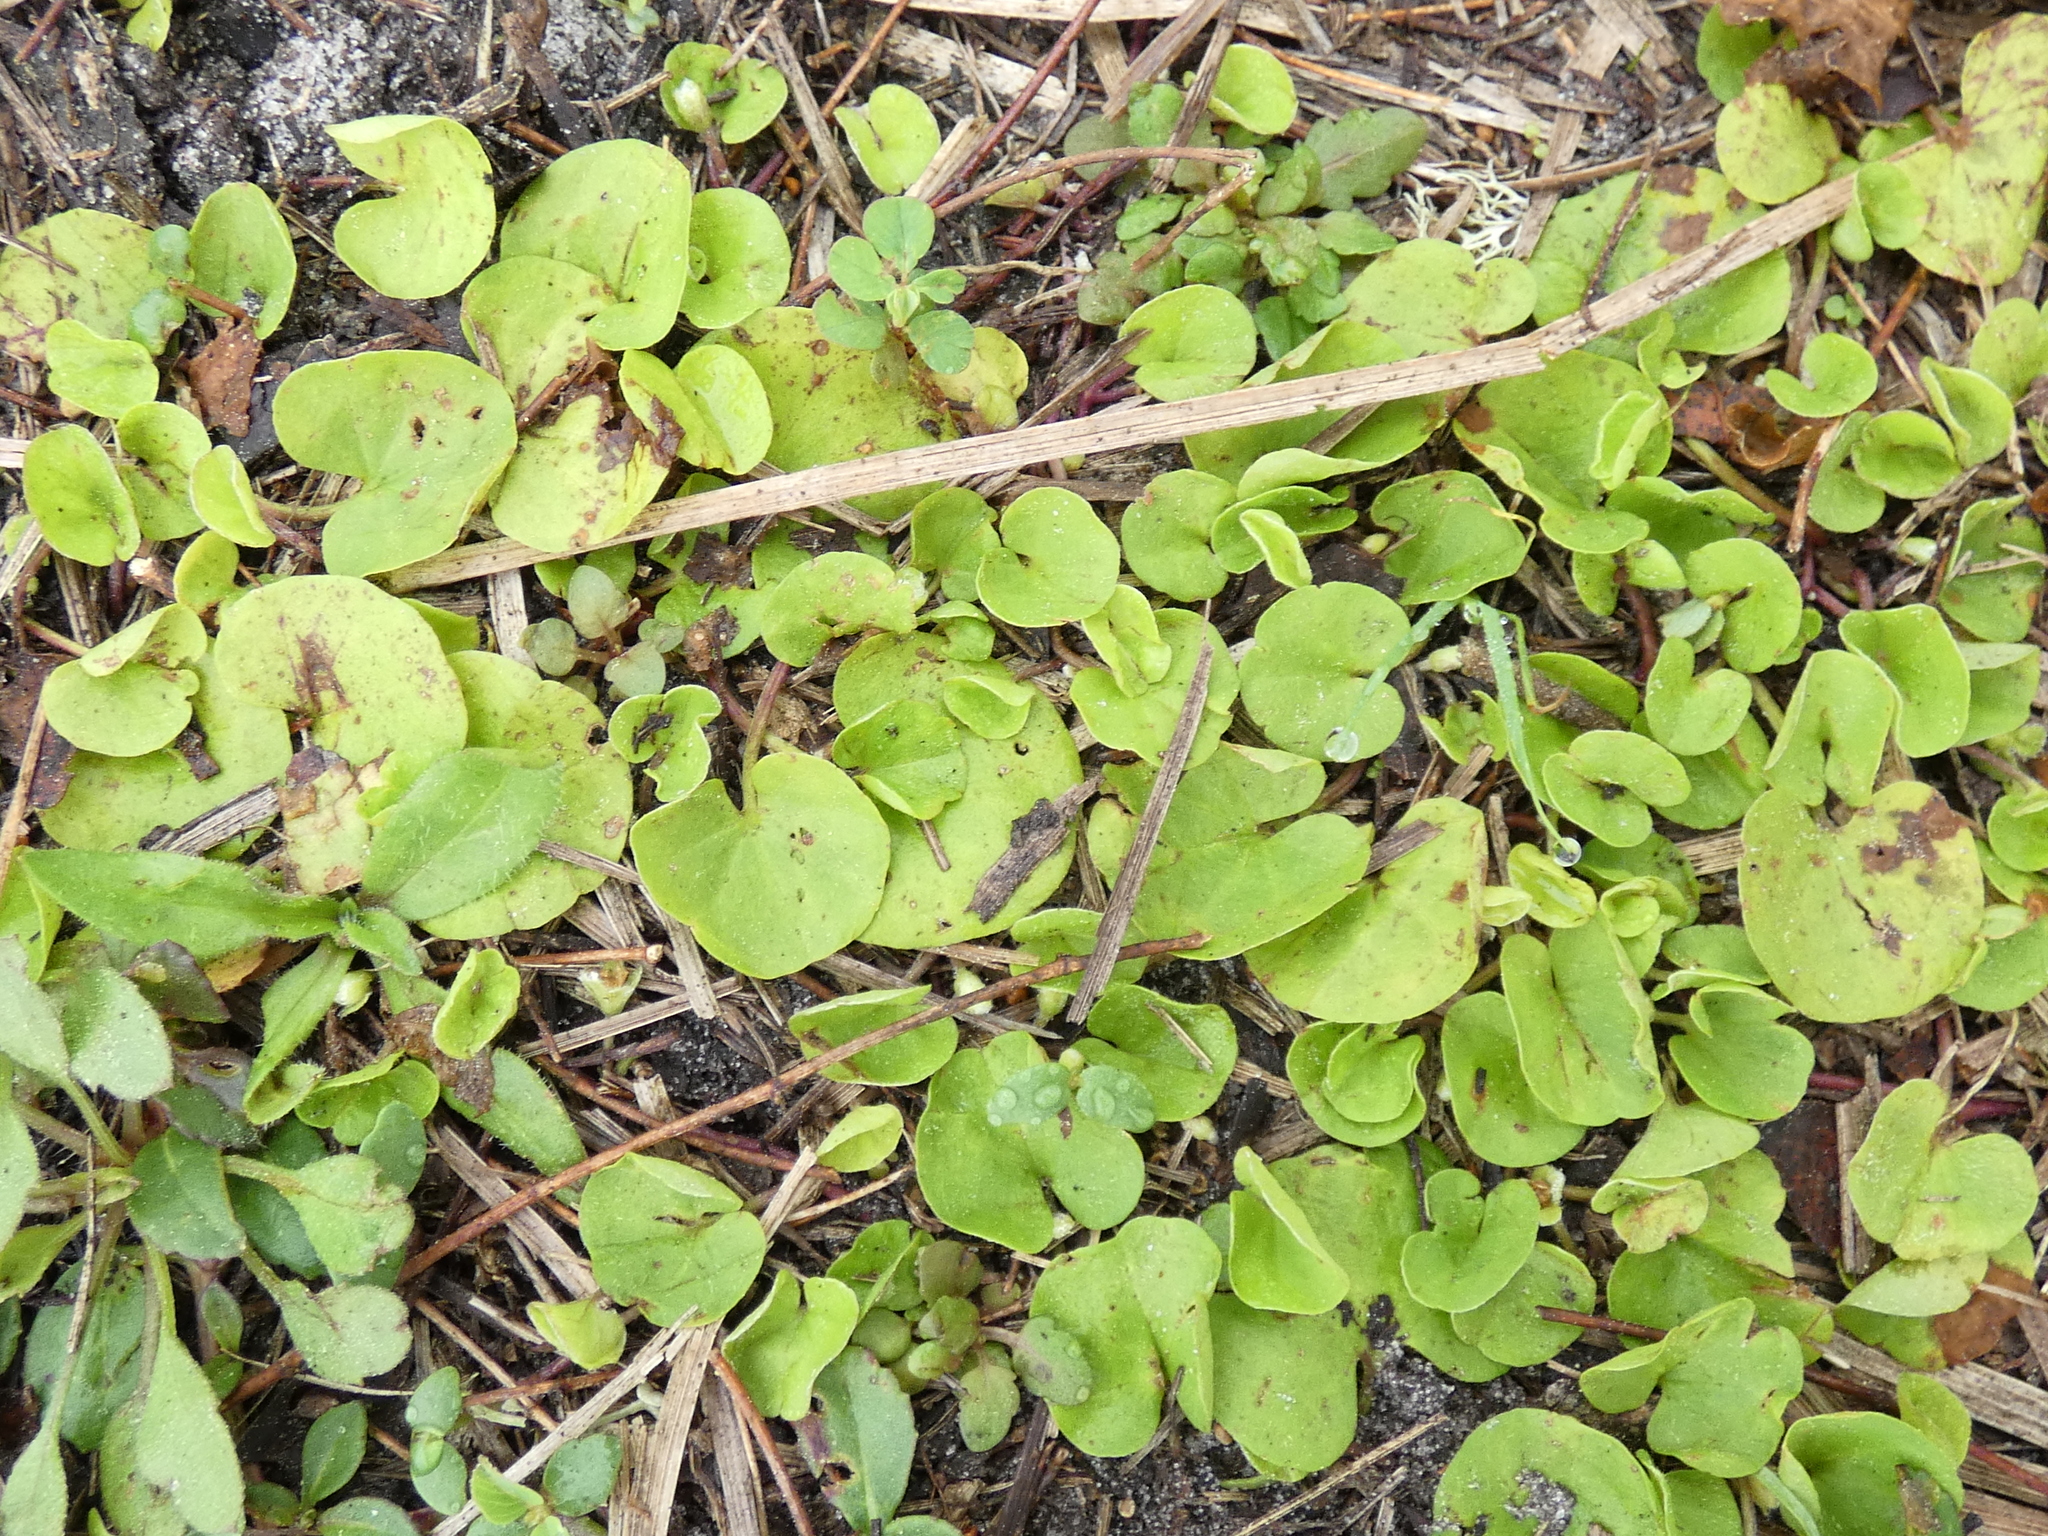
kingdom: Plantae
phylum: Tracheophyta
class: Magnoliopsida
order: Solanales
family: Convolvulaceae
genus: Dichondra
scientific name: Dichondra carolinensis
